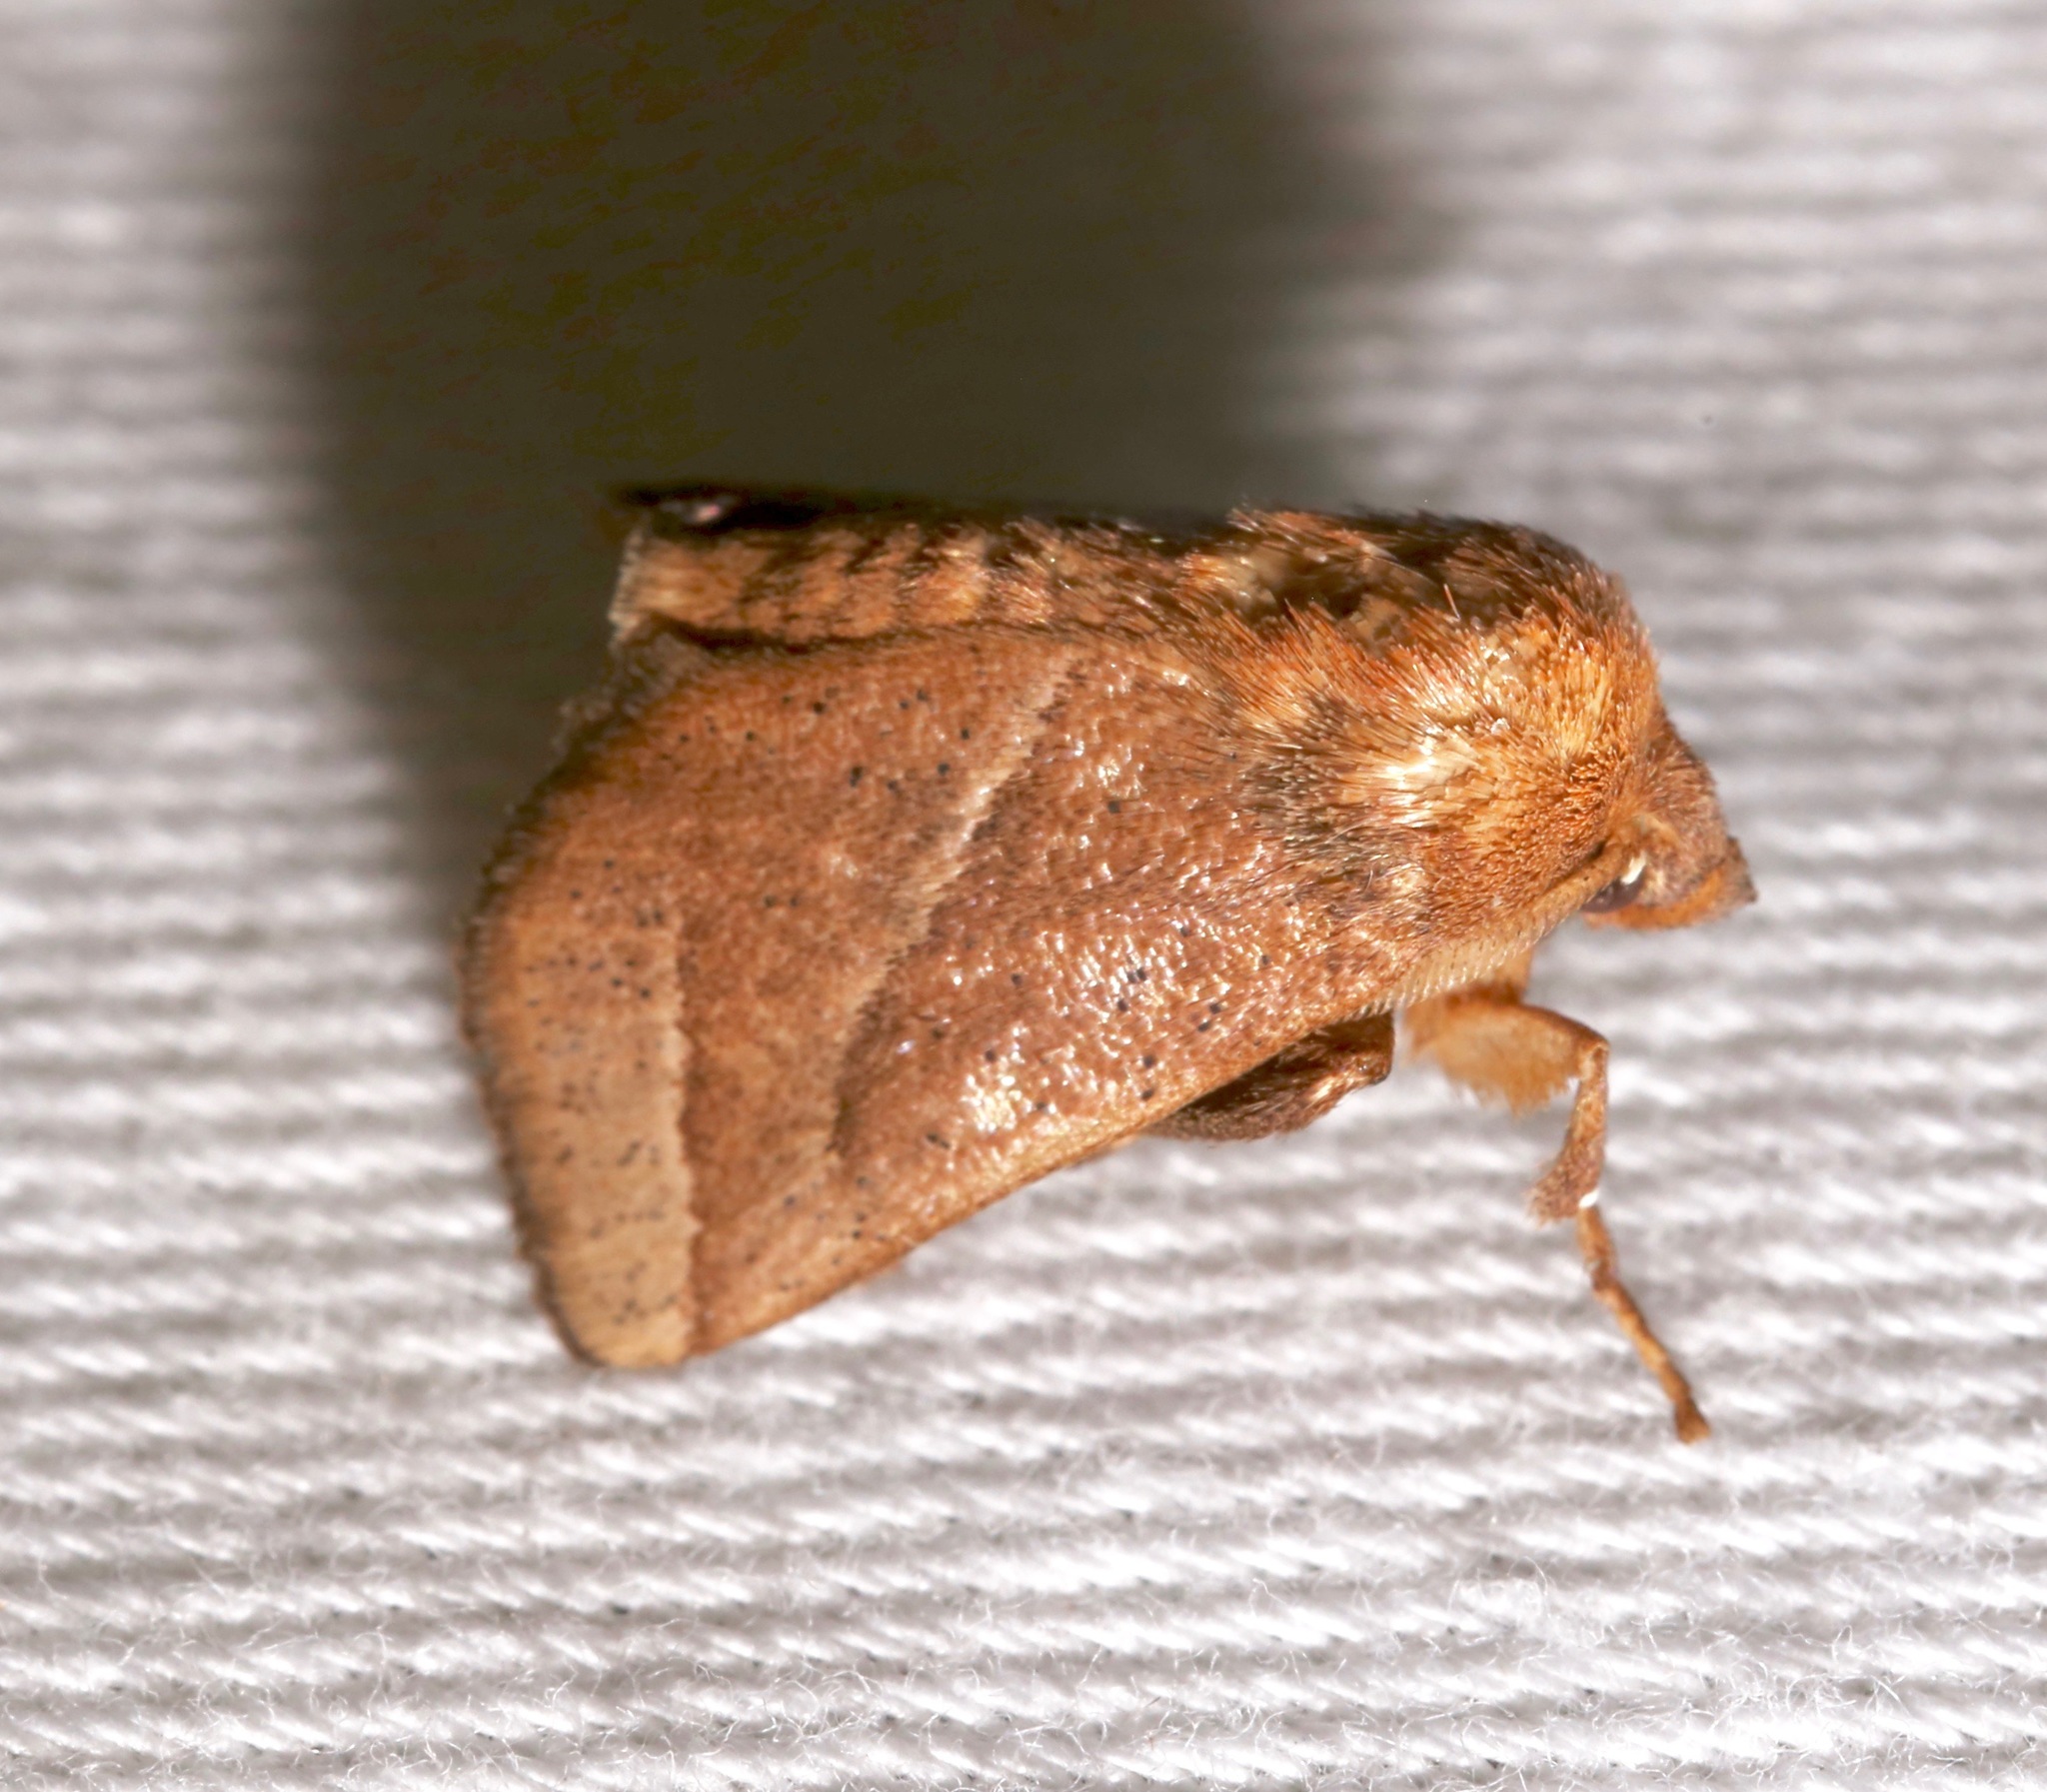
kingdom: Animalia
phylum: Arthropoda
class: Insecta
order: Lepidoptera
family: Limacodidae
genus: Natada
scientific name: Natada nasoni
